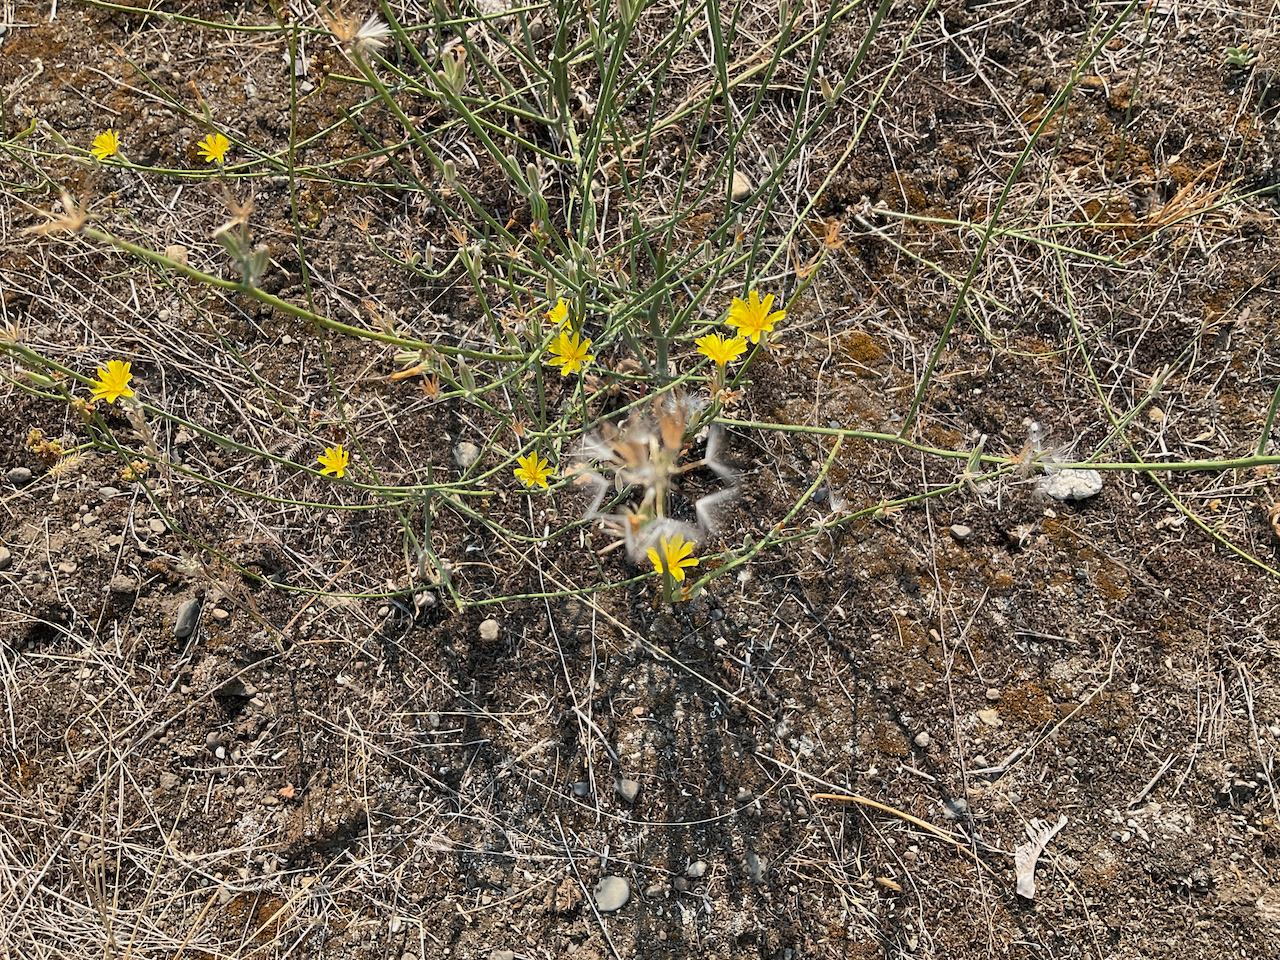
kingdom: Plantae
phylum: Tracheophyta
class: Magnoliopsida
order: Asterales
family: Asteraceae
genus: Chondrilla
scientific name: Chondrilla juncea
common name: Skeleton weed
